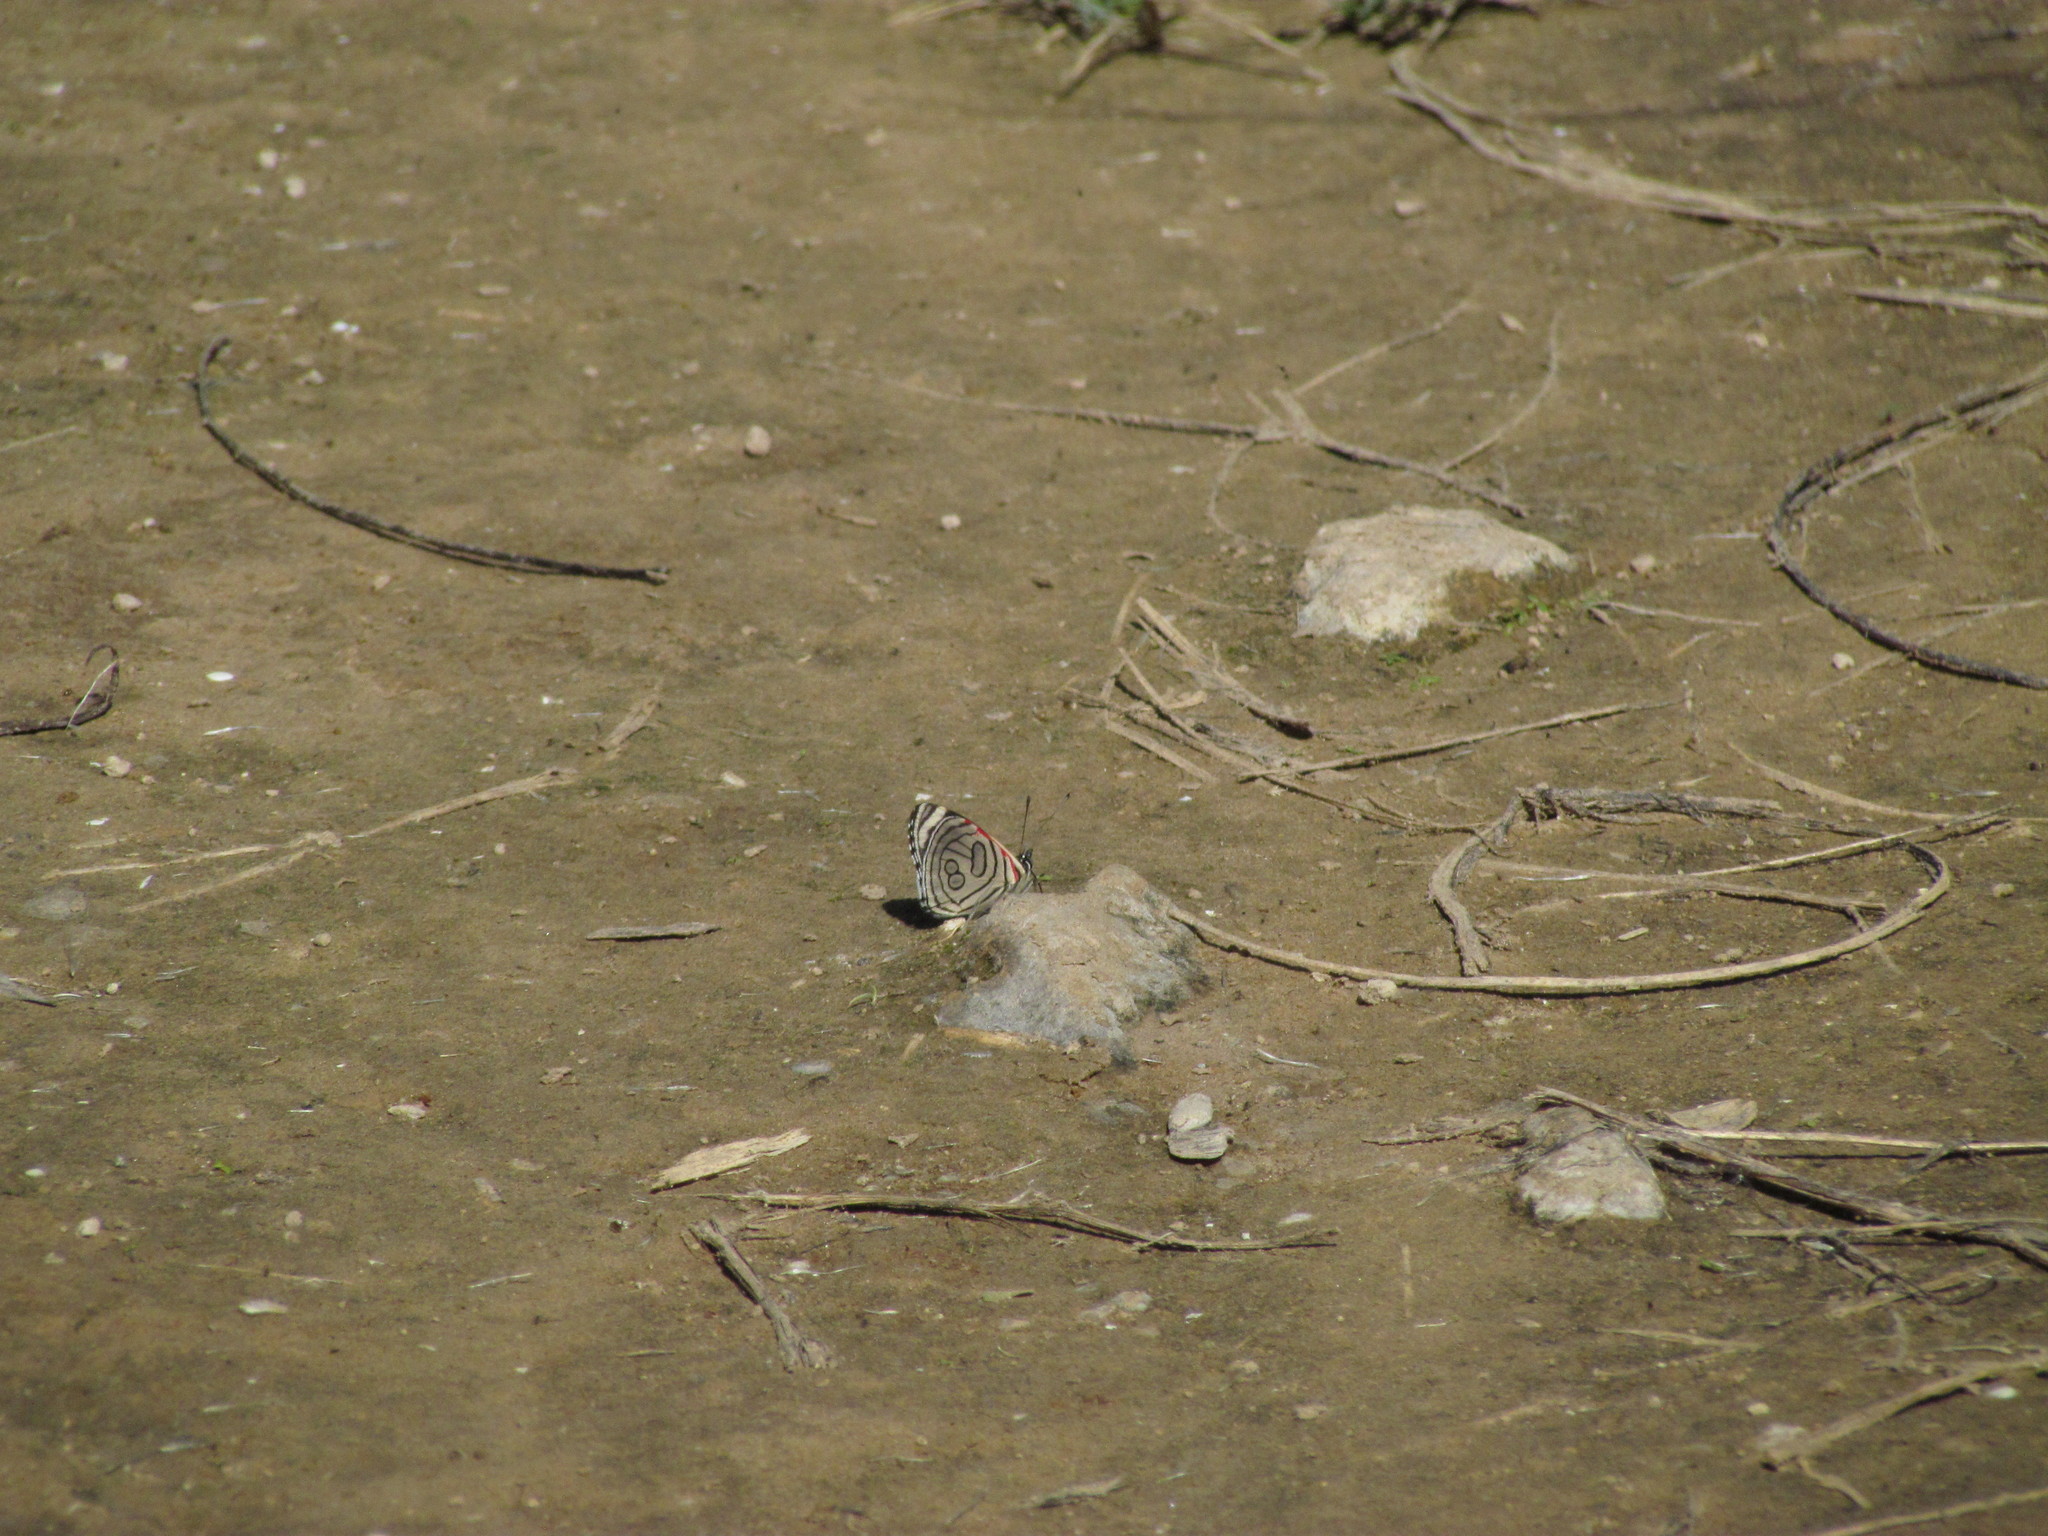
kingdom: Animalia
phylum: Arthropoda
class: Insecta
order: Lepidoptera
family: Nymphalidae
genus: Diaethria
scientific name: Diaethria candrena
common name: Number eighty
